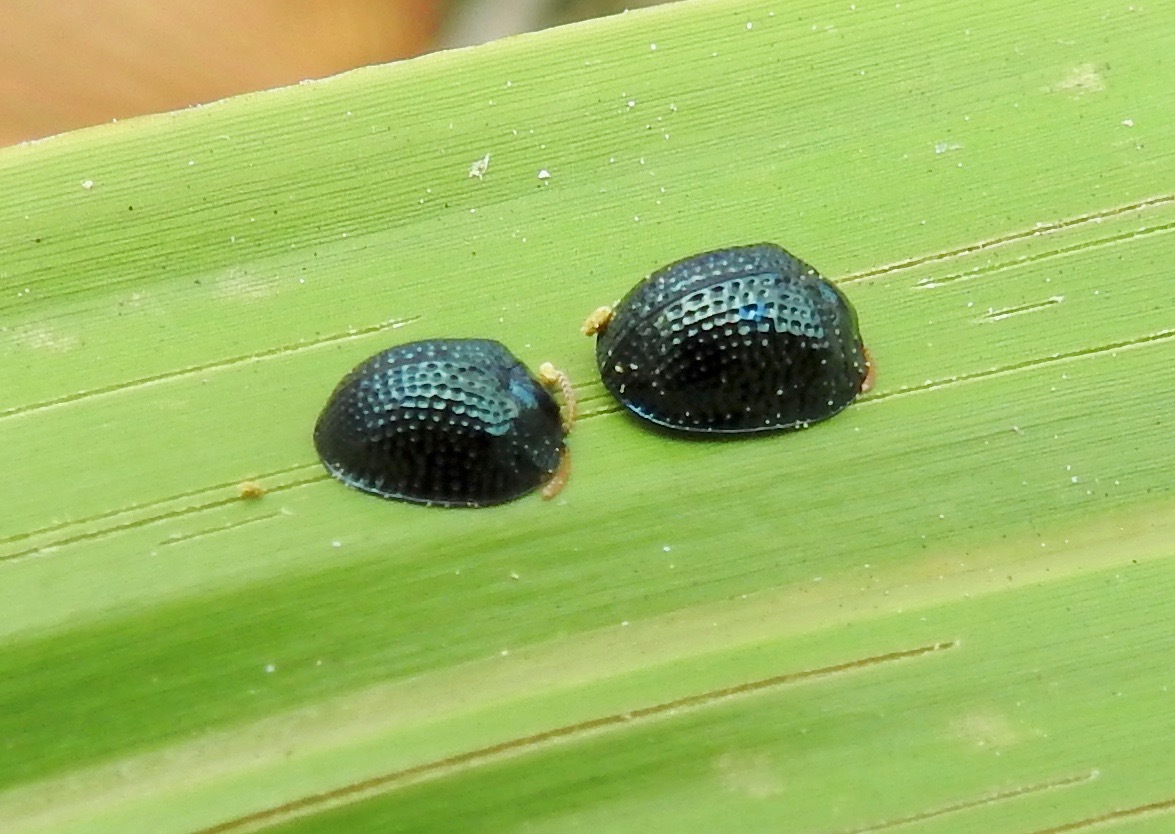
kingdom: Animalia
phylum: Arthropoda
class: Insecta
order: Coleoptera
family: Chrysomelidae
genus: Hemisphaerota
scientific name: Hemisphaerota cyanea
